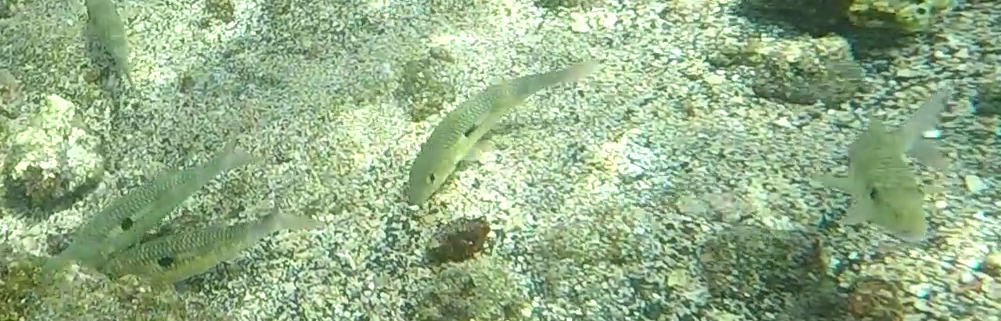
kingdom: Animalia
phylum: Chordata
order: Perciformes
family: Mullidae
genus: Mulloidichthys
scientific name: Mulloidichthys flavolineatus
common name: Yellowstripe goatfish
